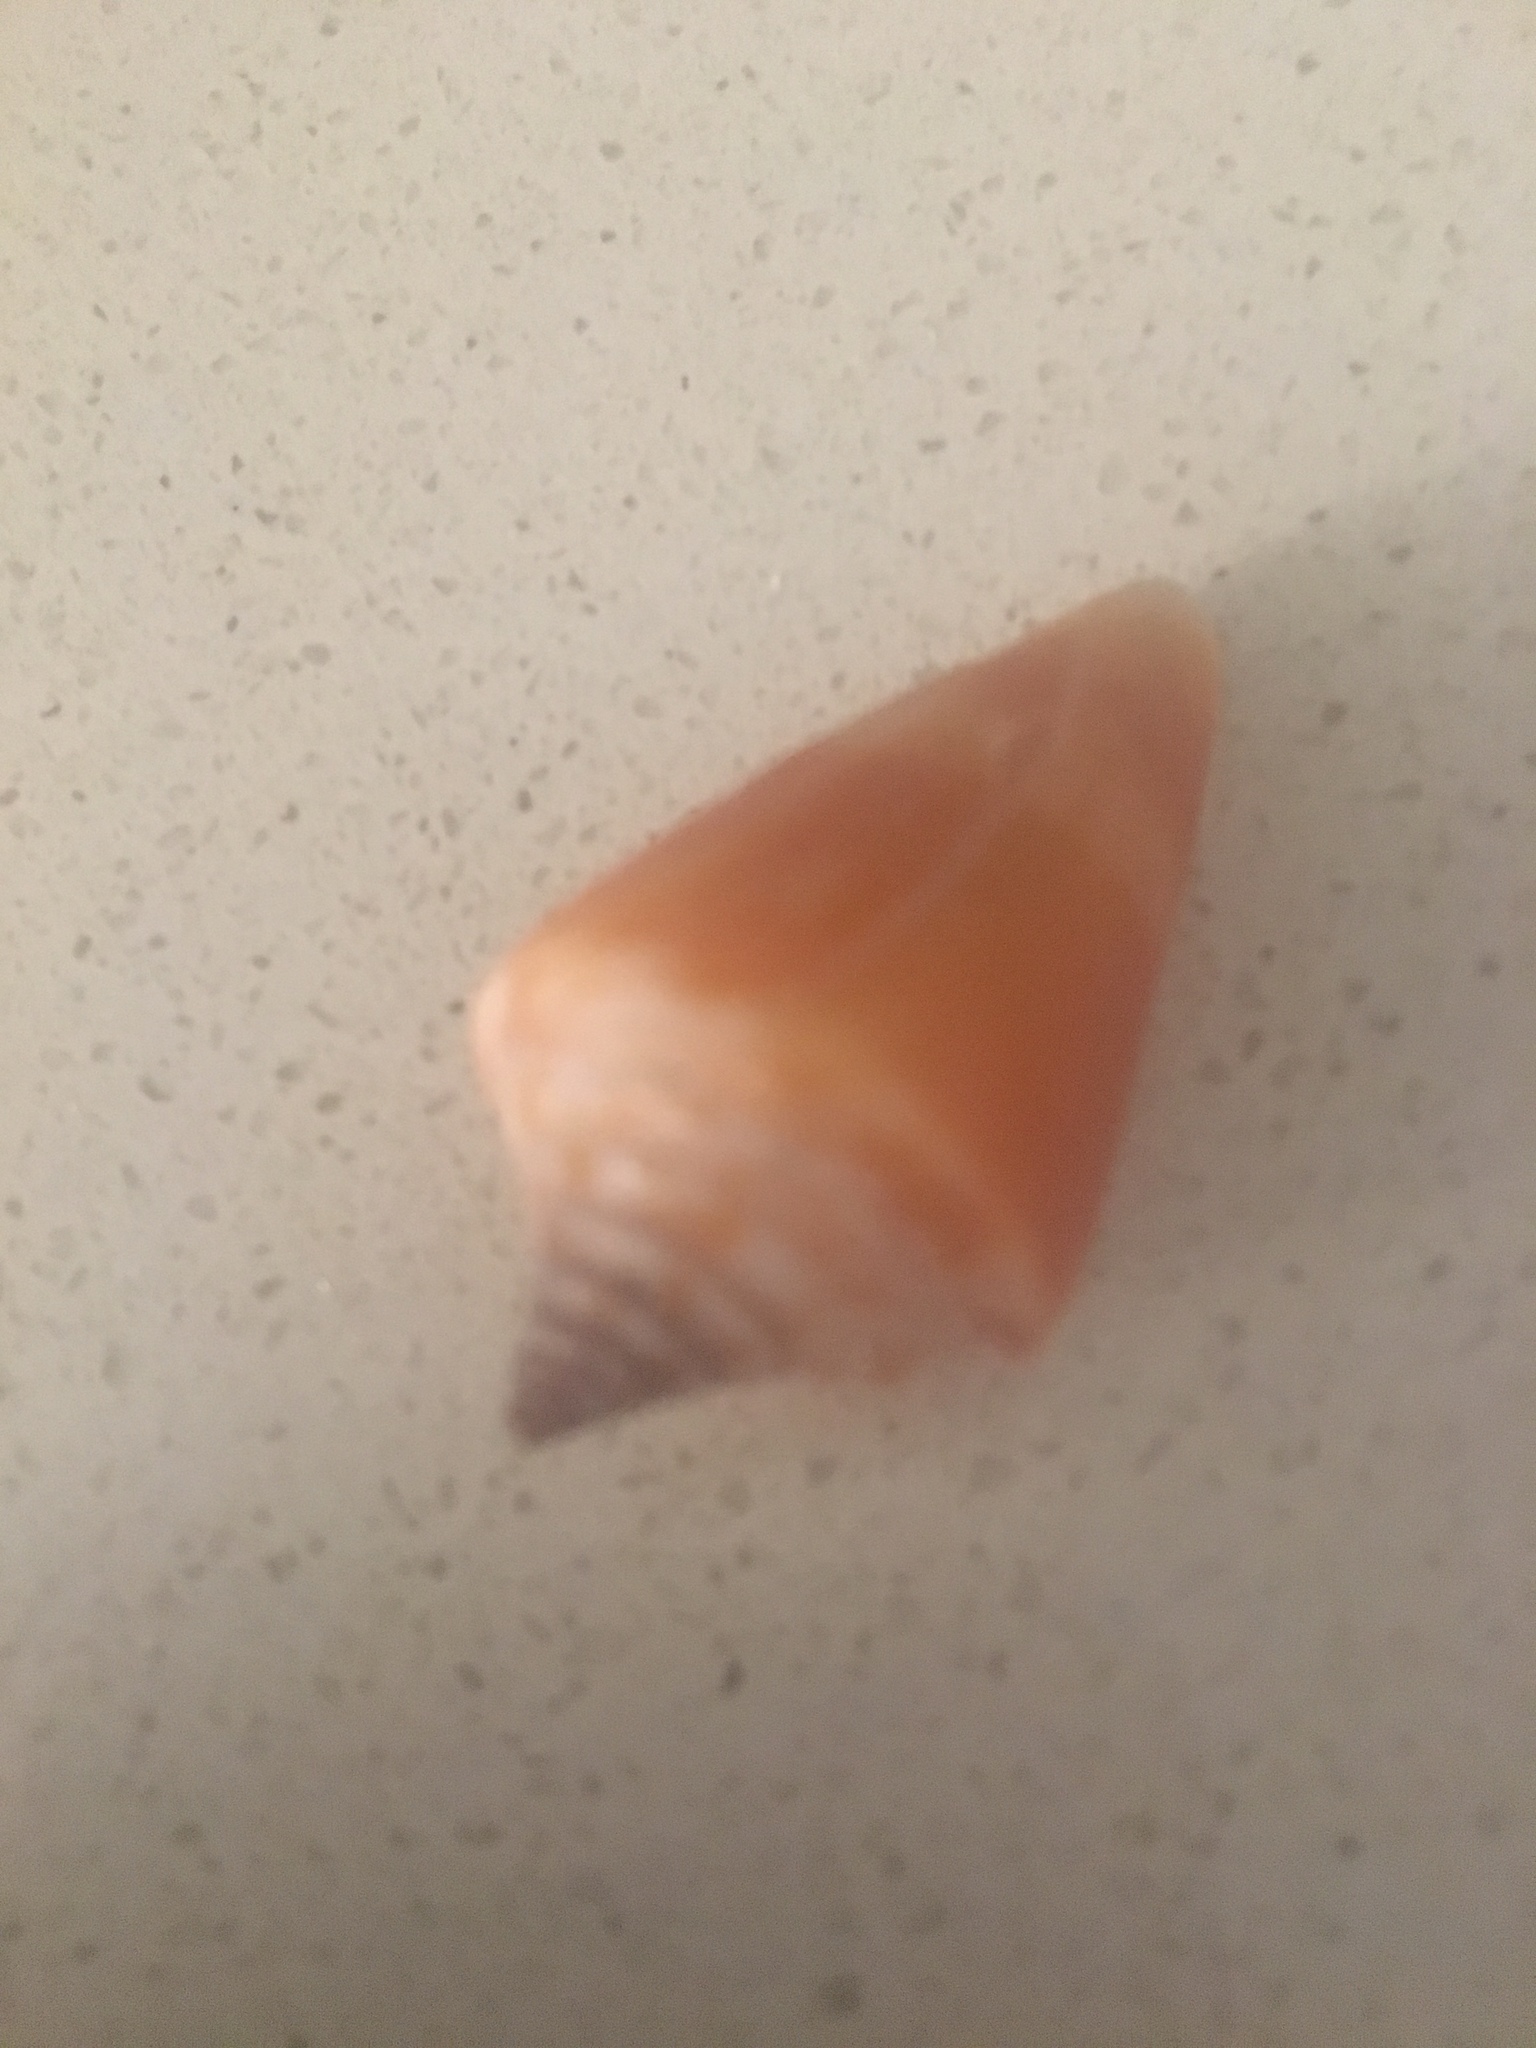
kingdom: Animalia
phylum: Mollusca
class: Gastropoda
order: Neogastropoda
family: Conidae
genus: Conus
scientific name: Conus scalaris
